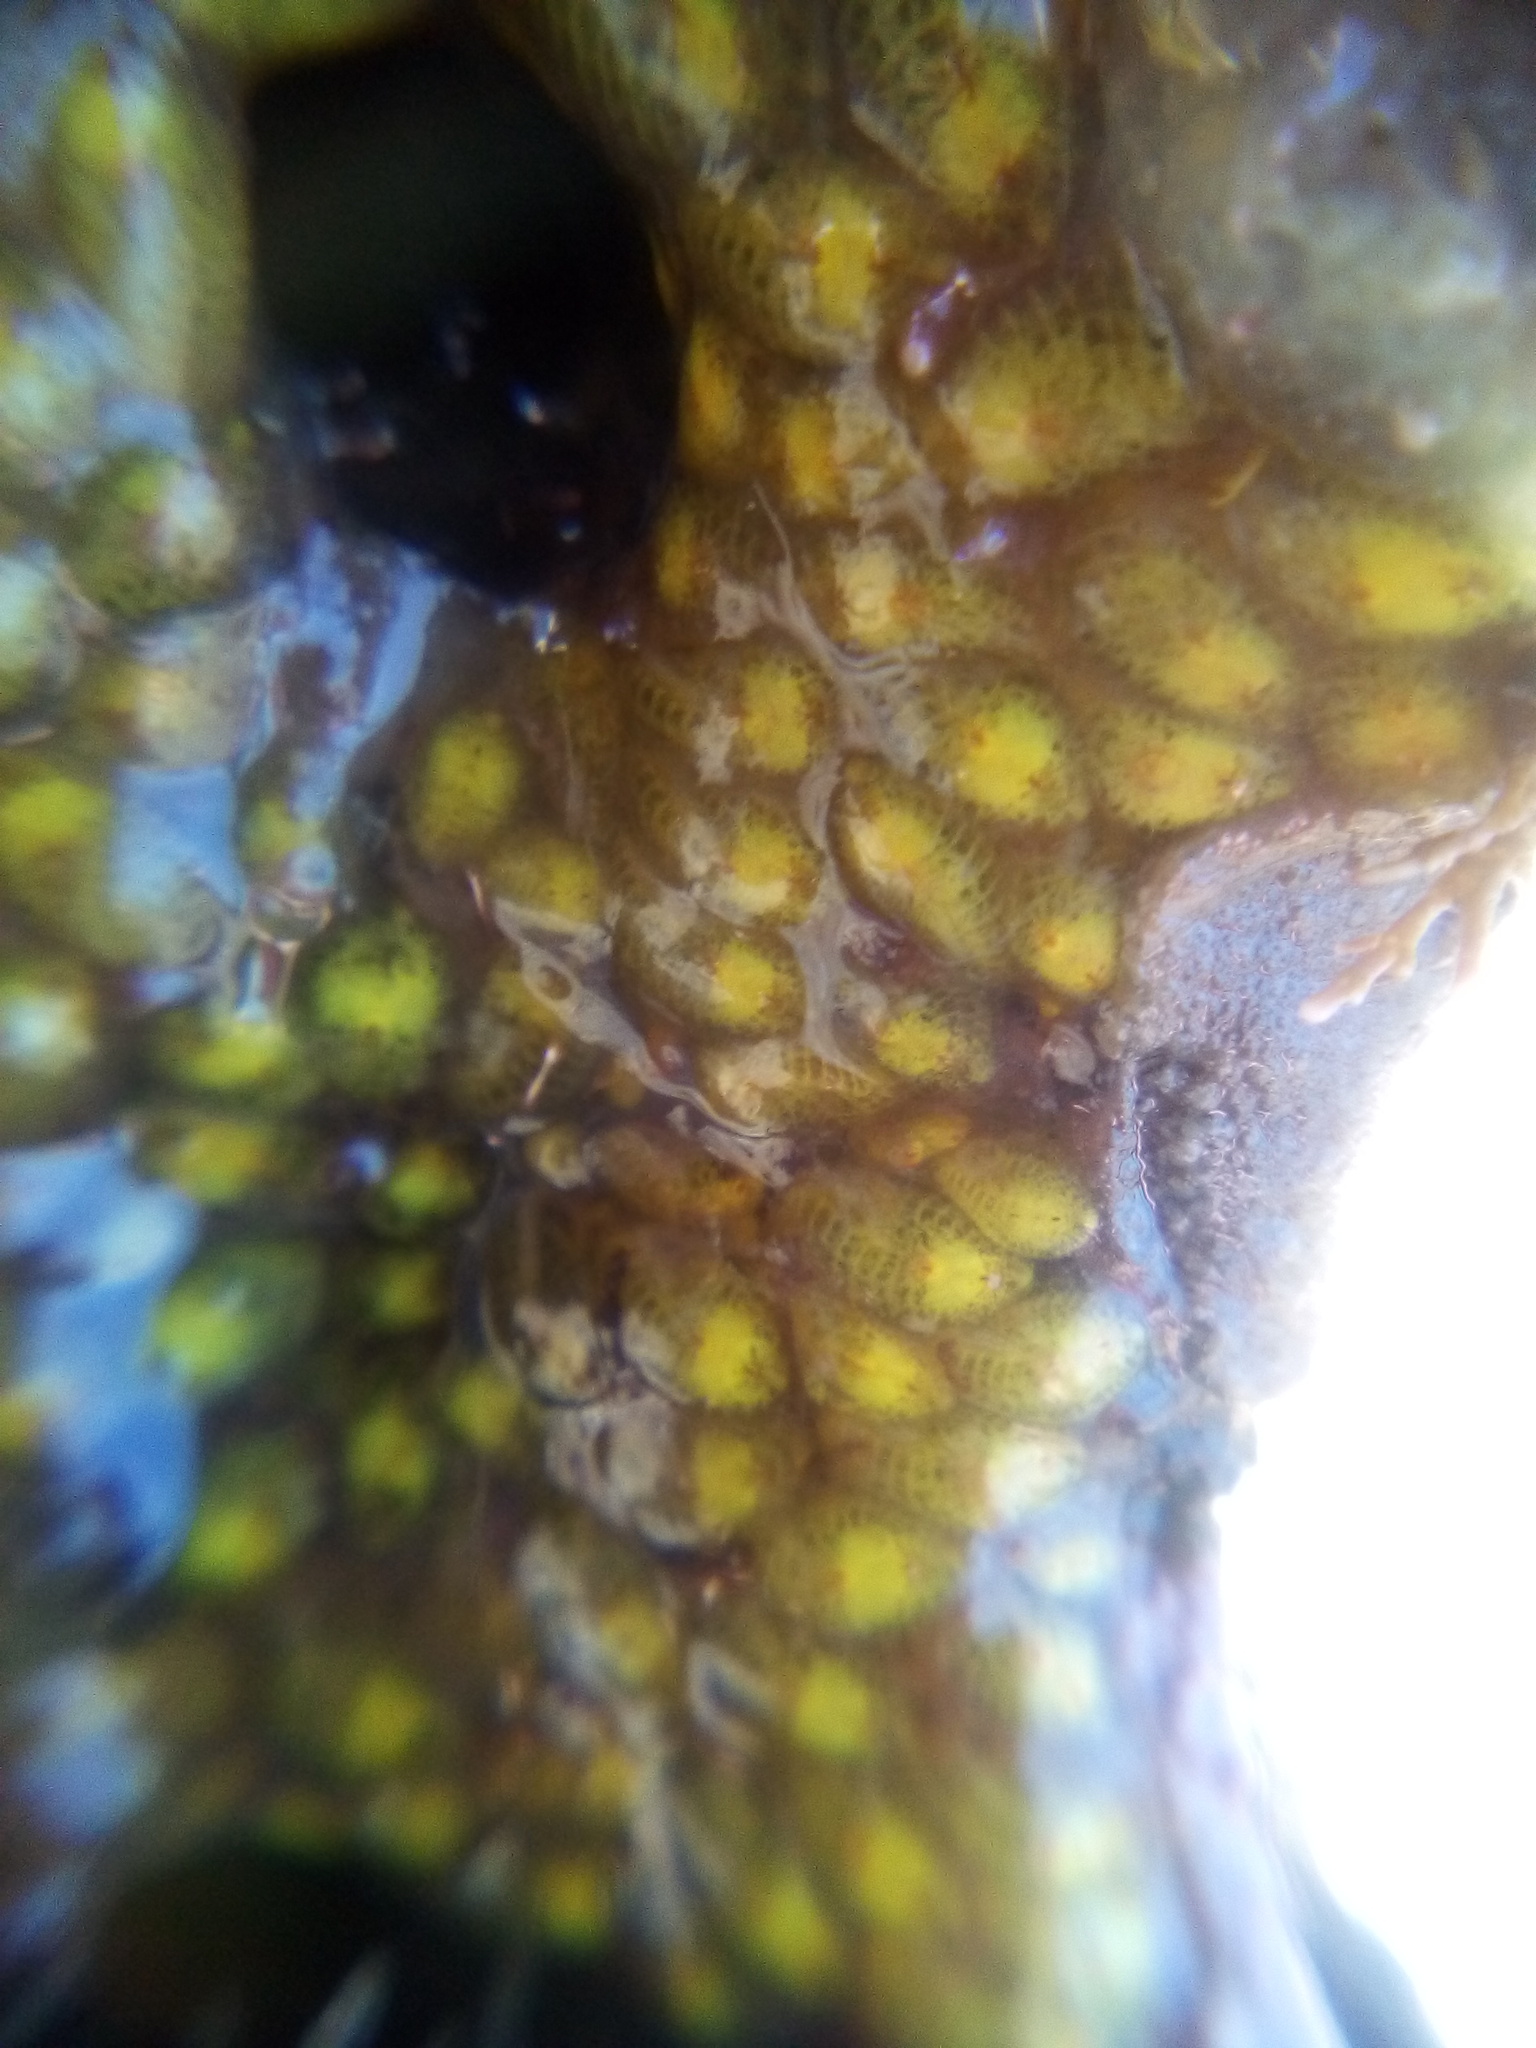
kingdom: Animalia
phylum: Chordata
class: Ascidiacea
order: Stolidobranchia
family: Styelidae
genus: Symplegma
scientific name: Symplegma brakenhielmi
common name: Ascidian
